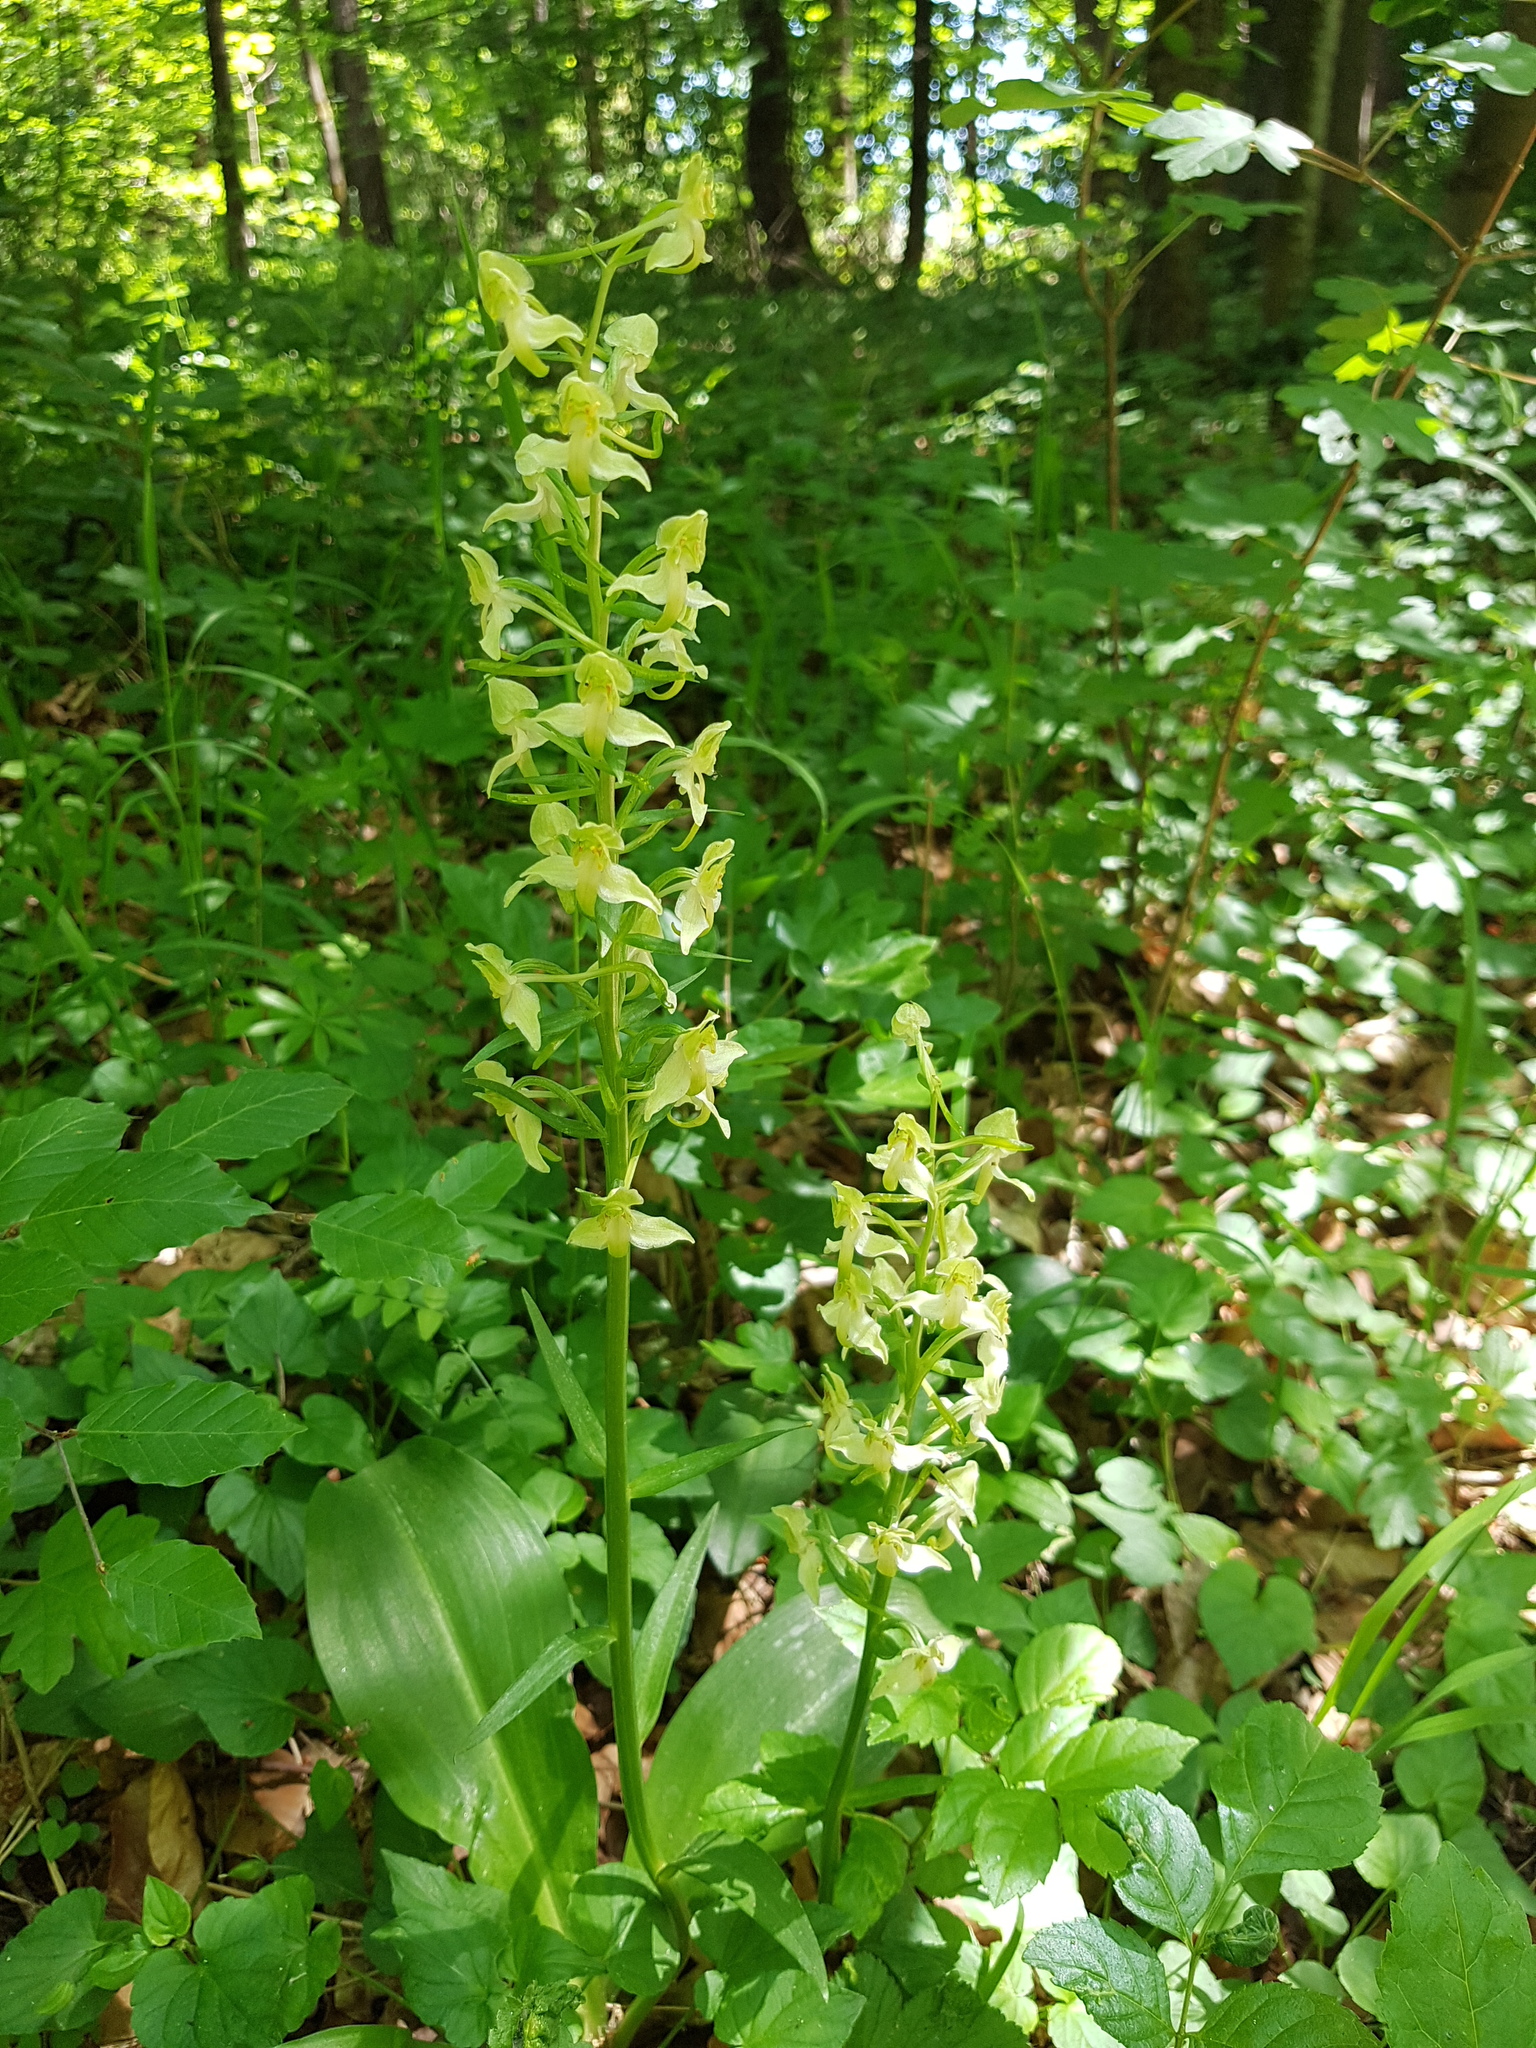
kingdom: Plantae
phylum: Tracheophyta
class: Liliopsida
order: Asparagales
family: Orchidaceae
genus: Platanthera
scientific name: Platanthera chlorantha
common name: Greater butterfly-orchid
